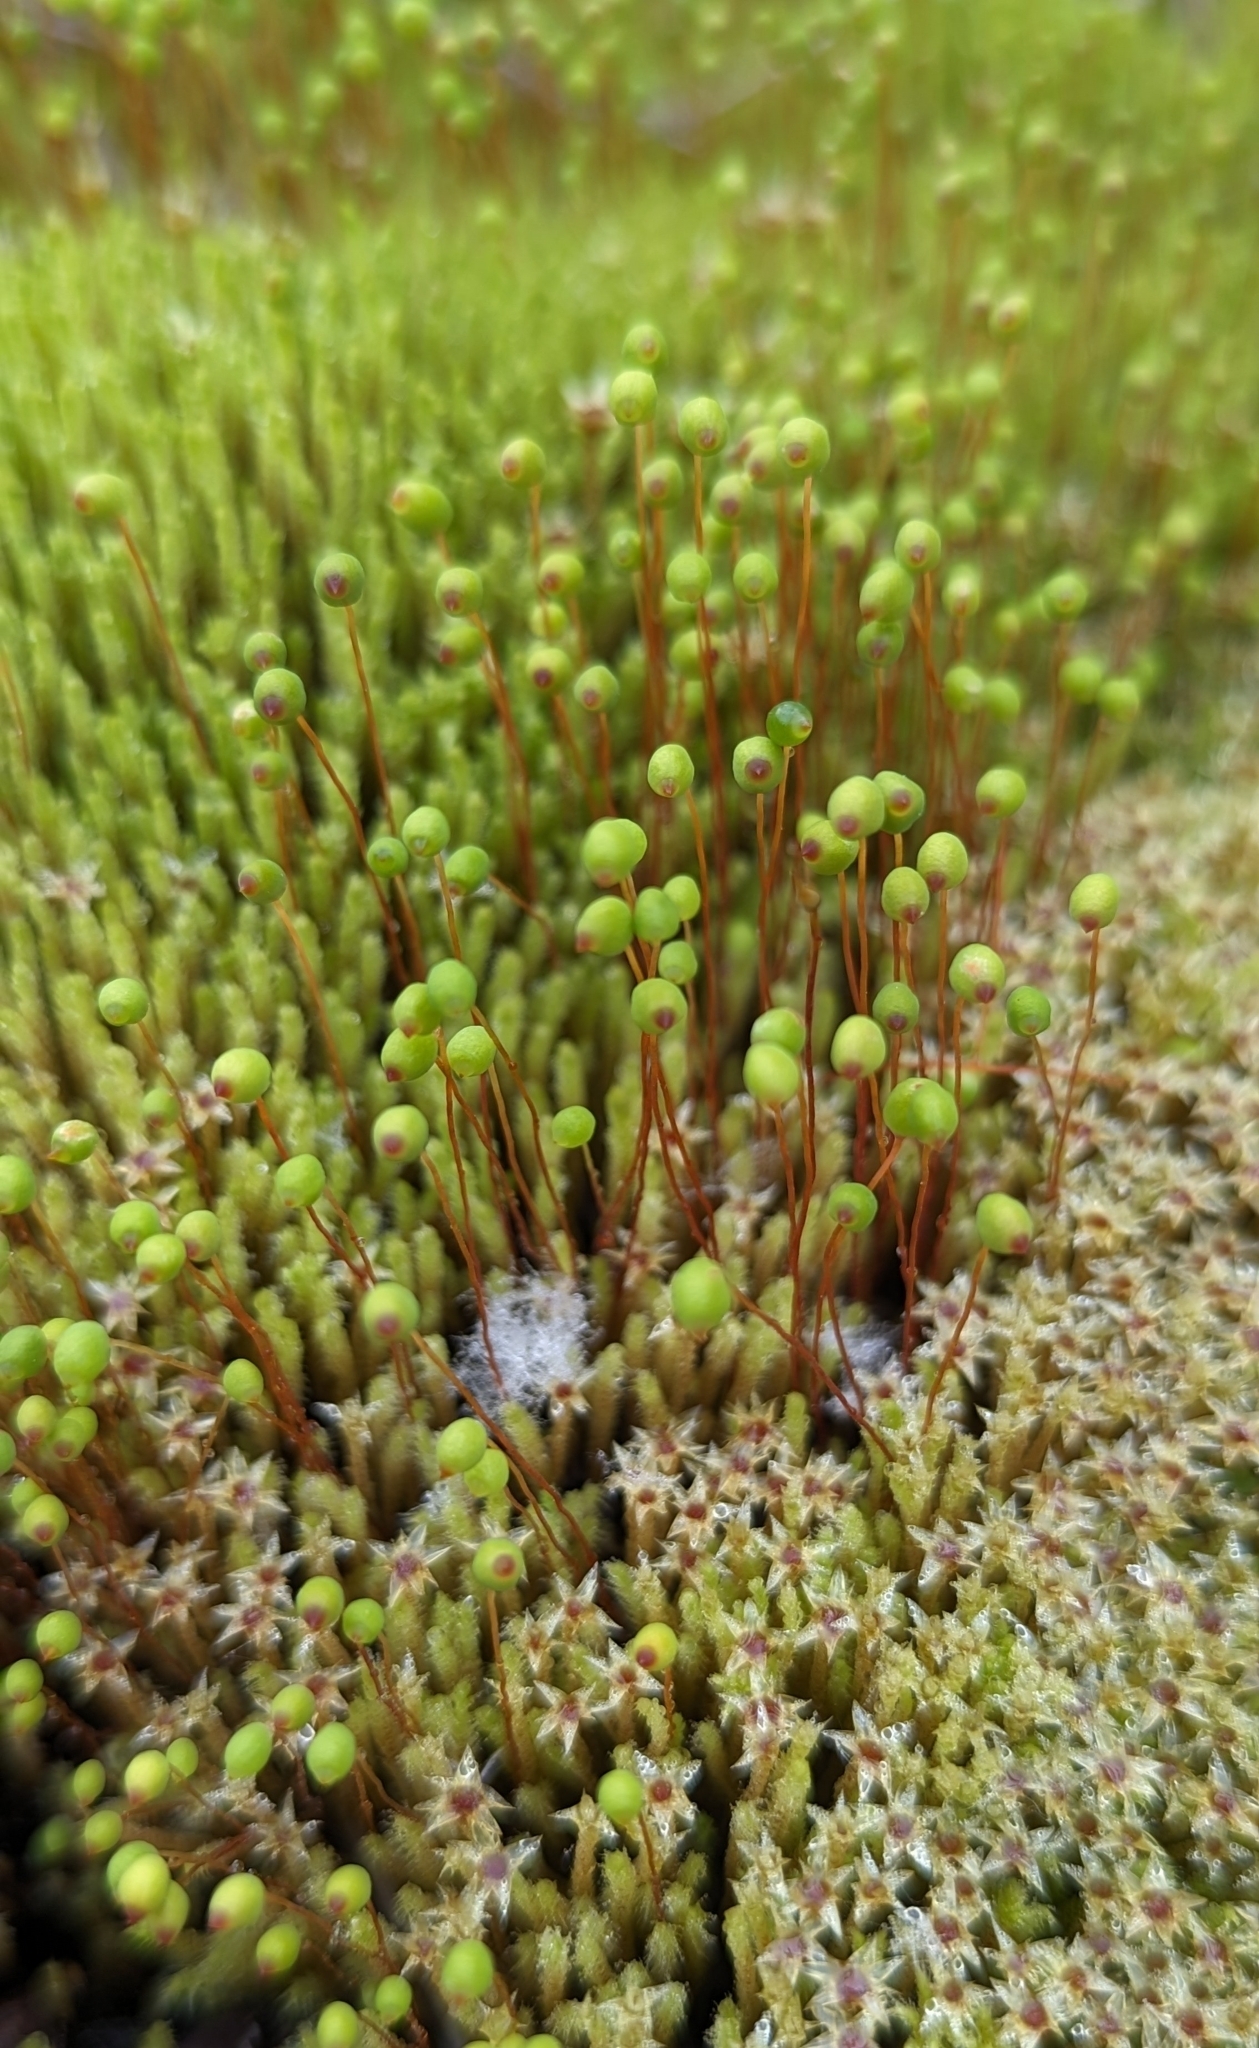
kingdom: Plantae
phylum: Bryophyta
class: Bryopsida
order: Bartramiales
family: Bartramiaceae
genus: Philonotis
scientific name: Philonotis fontana
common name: Fountain apple-moss
